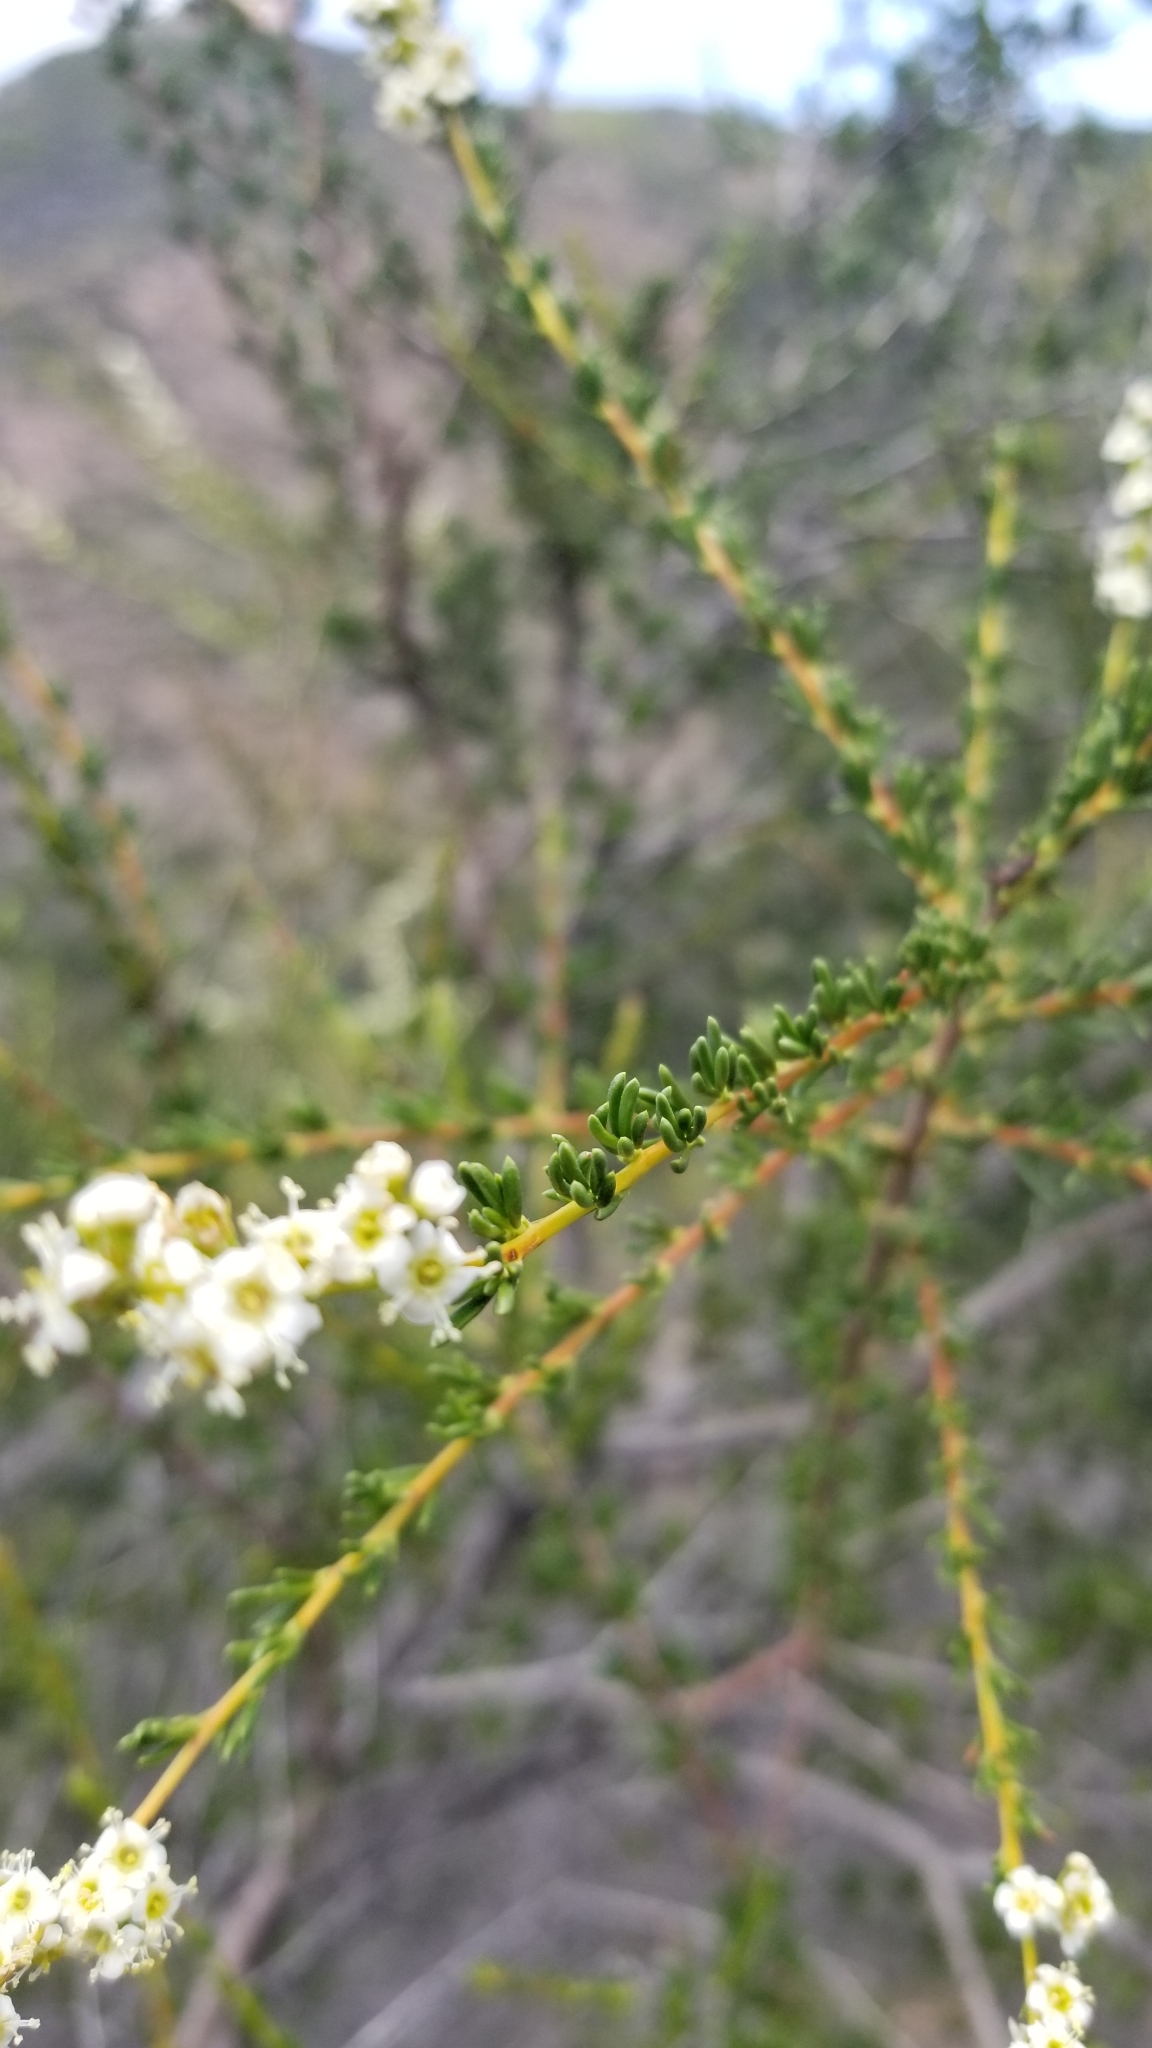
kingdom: Plantae
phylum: Tracheophyta
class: Magnoliopsida
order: Rosales
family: Rosaceae
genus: Adenostoma
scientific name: Adenostoma fasciculatum
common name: Chamise
